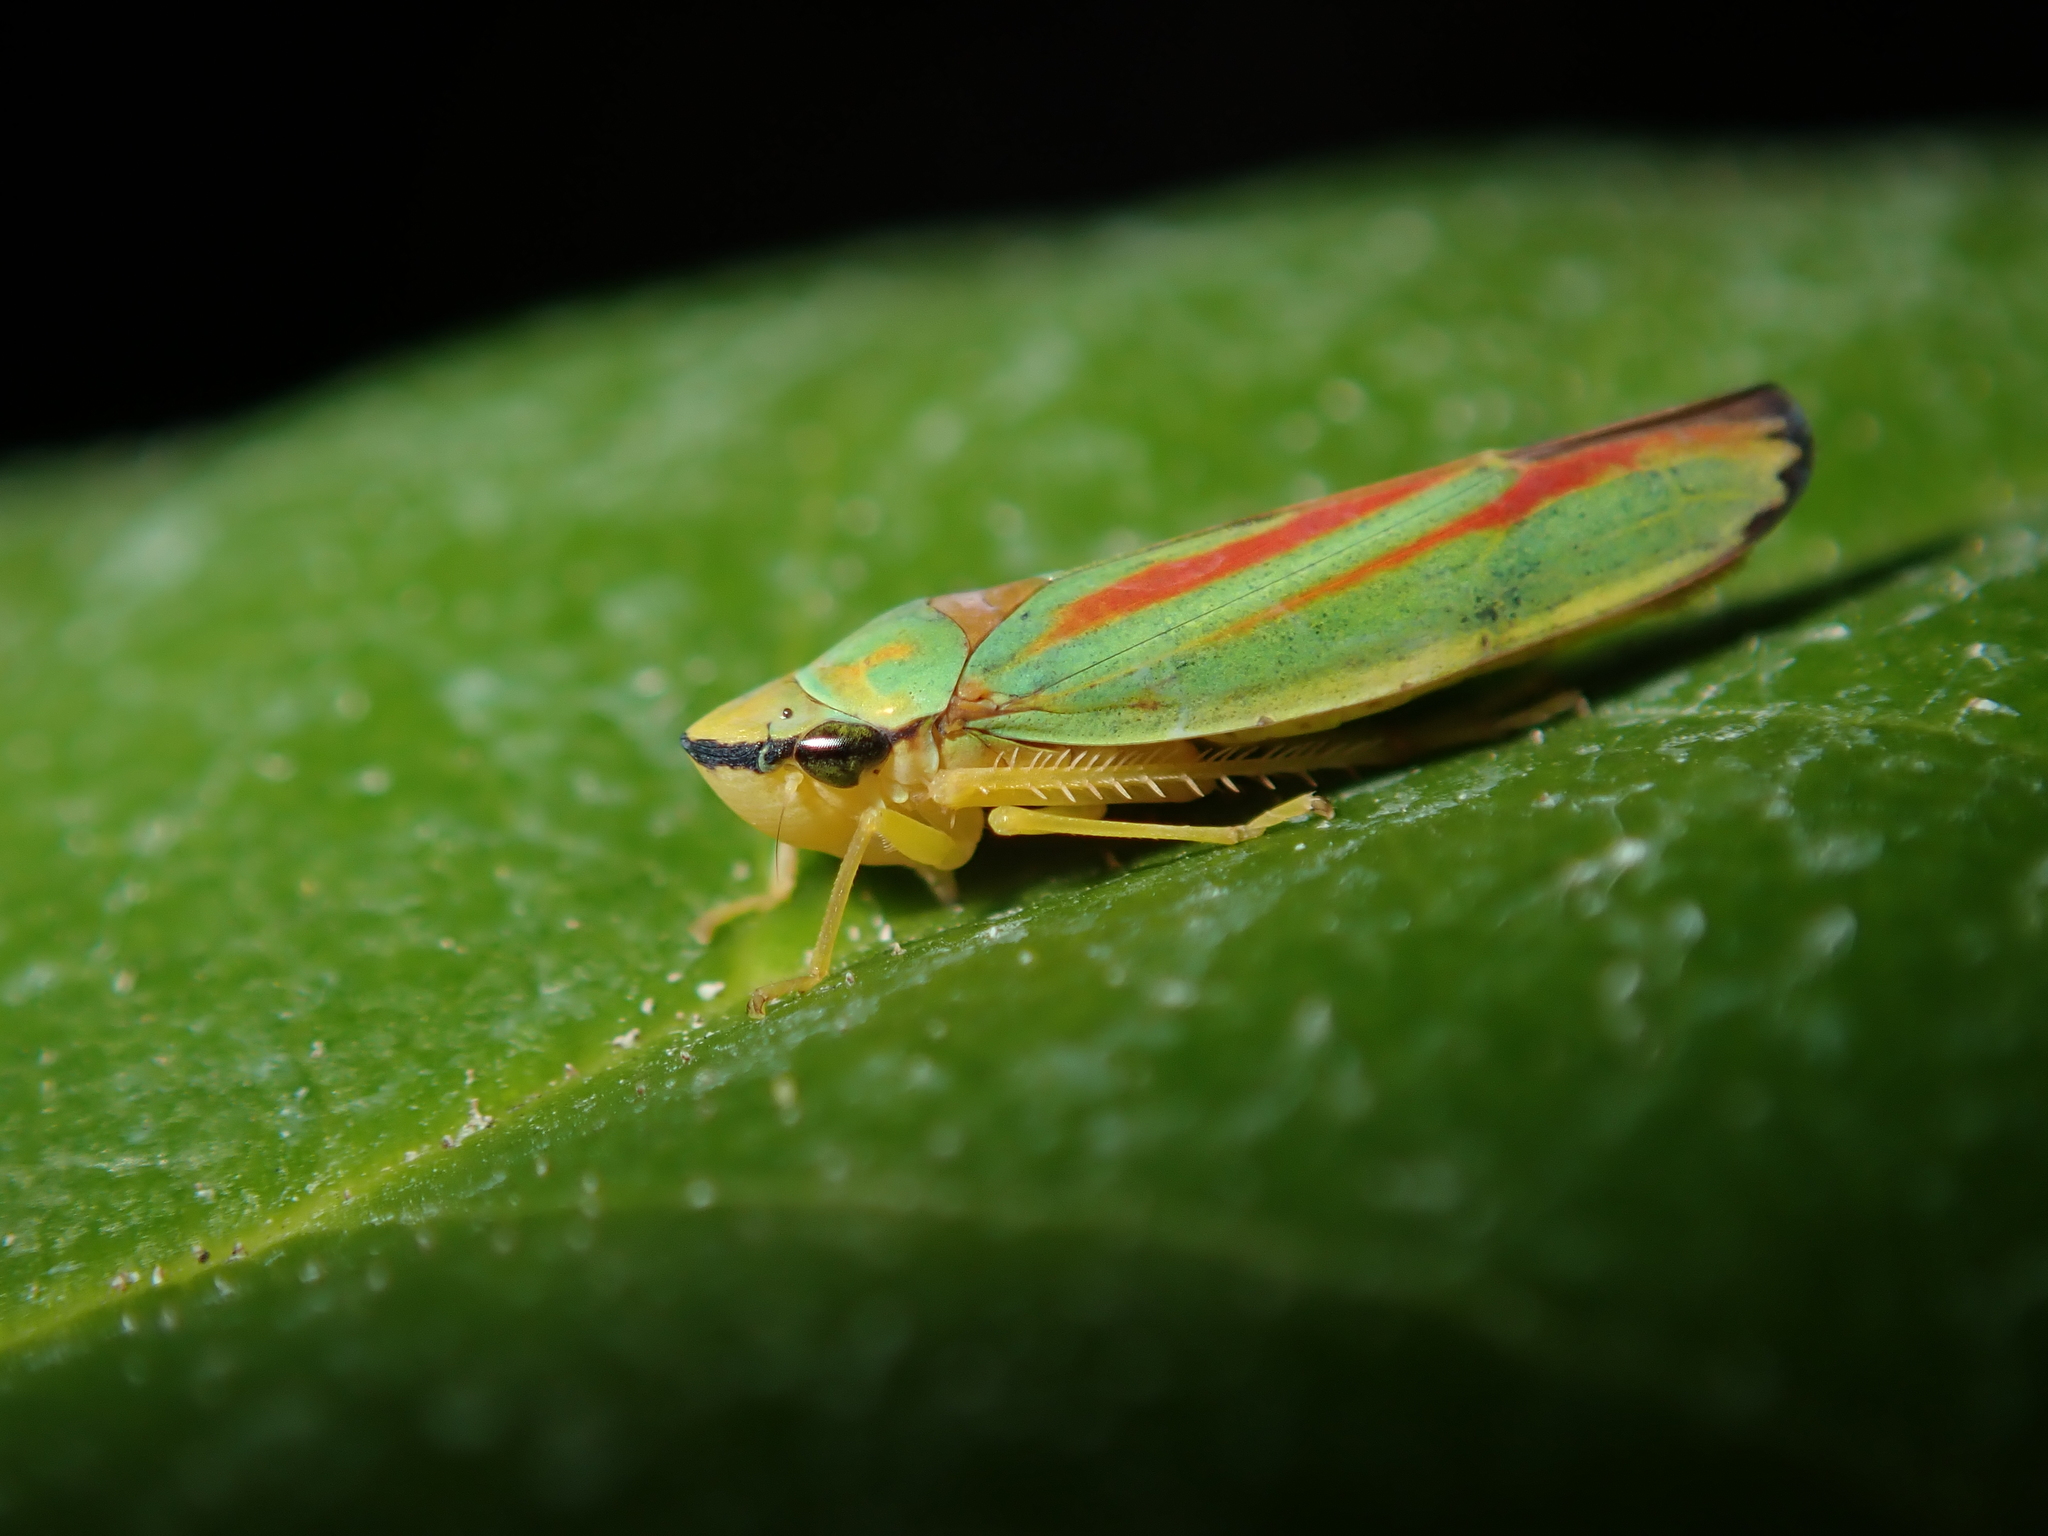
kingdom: Animalia
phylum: Arthropoda
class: Insecta
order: Hemiptera
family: Cicadellidae
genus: Graphocephala
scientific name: Graphocephala fennahi
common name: Rhododendron leafhopper
